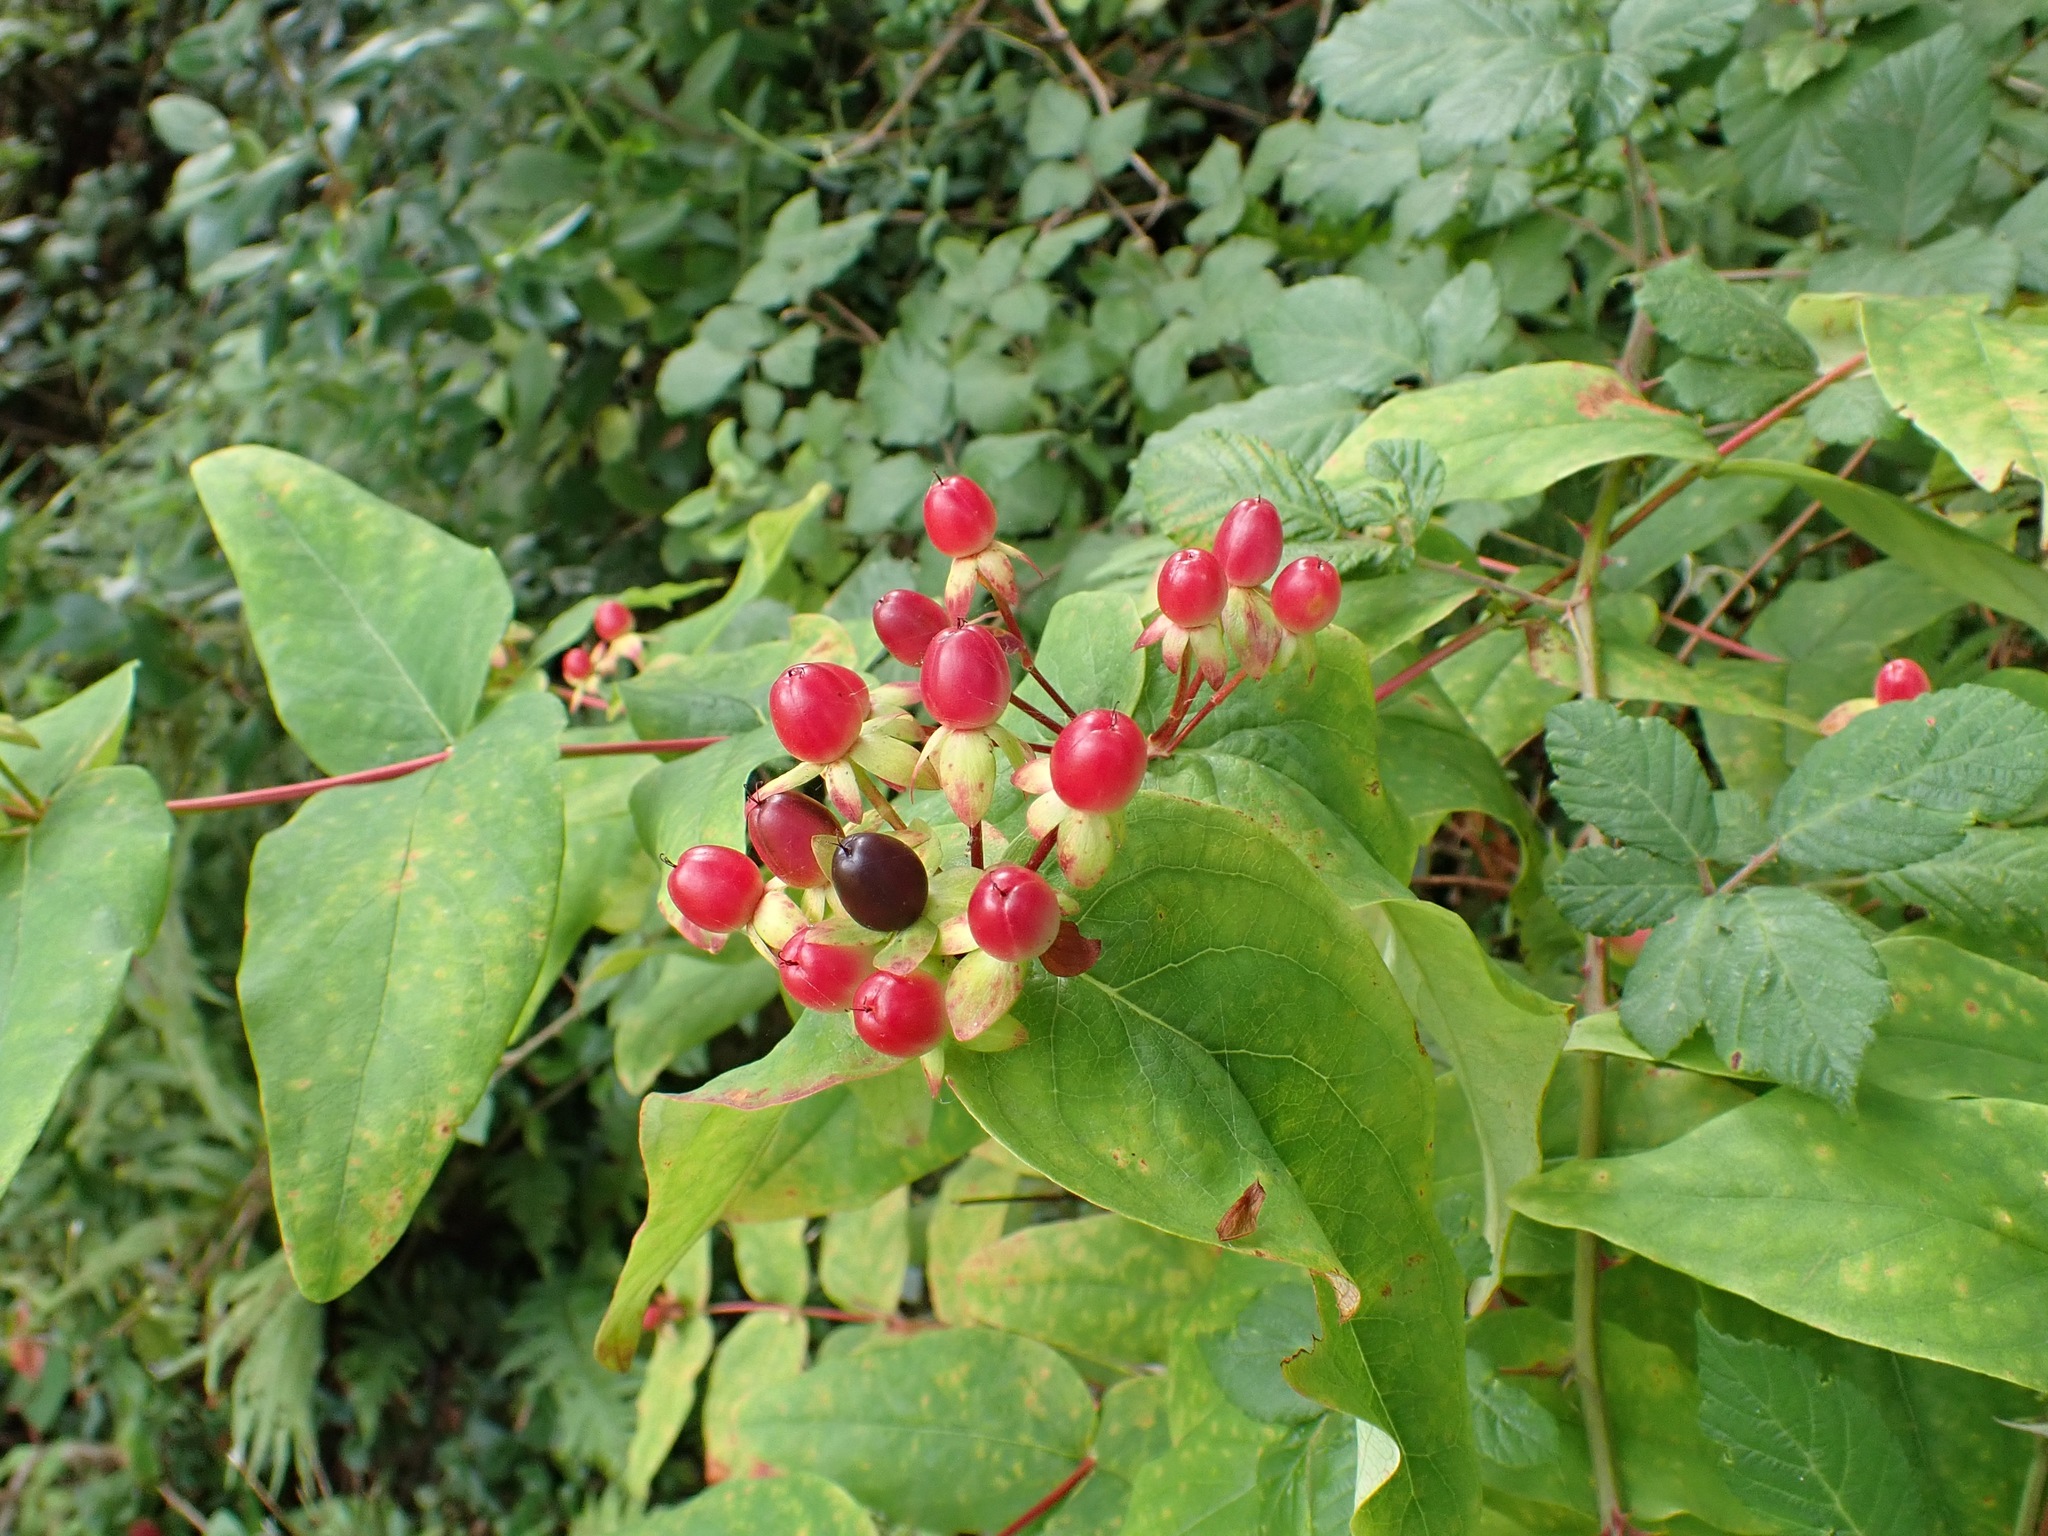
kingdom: Plantae
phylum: Tracheophyta
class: Magnoliopsida
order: Malpighiales
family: Hypericaceae
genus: Hypericum
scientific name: Hypericum androsaemum
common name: Sweet-amber
